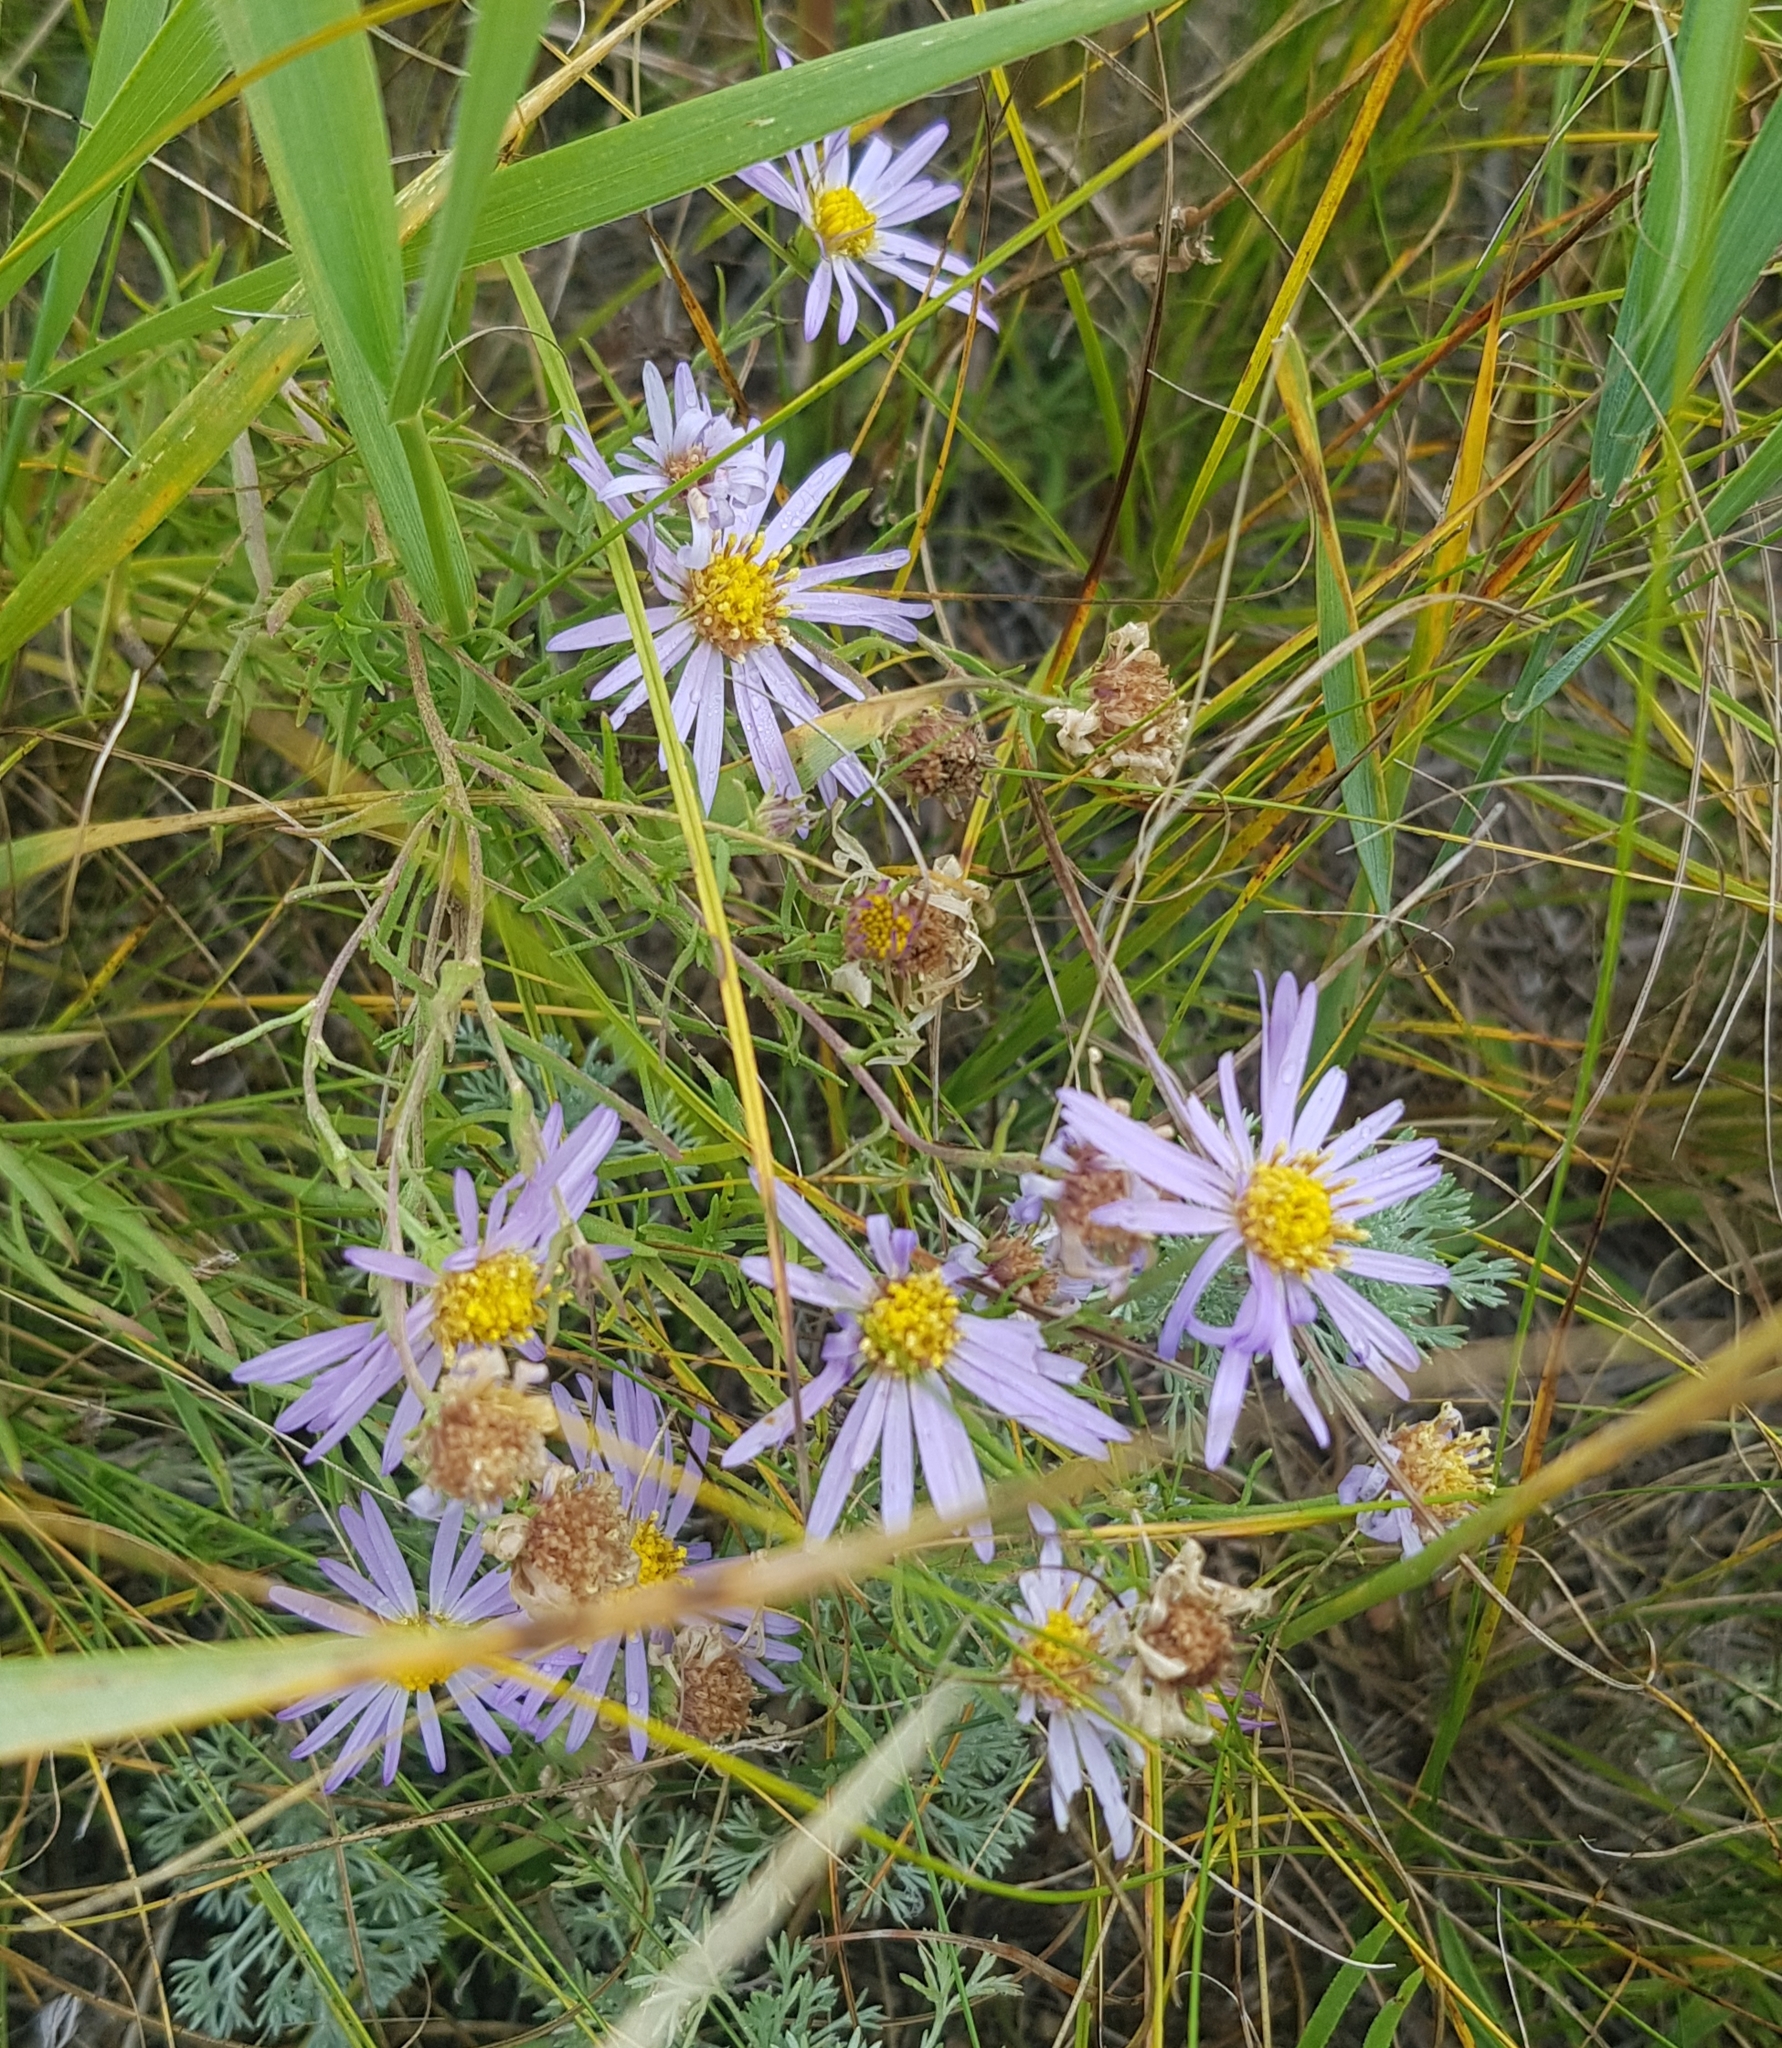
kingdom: Plantae
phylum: Tracheophyta
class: Magnoliopsida
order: Asterales
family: Asteraceae
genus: Aster
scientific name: Aster biennis
